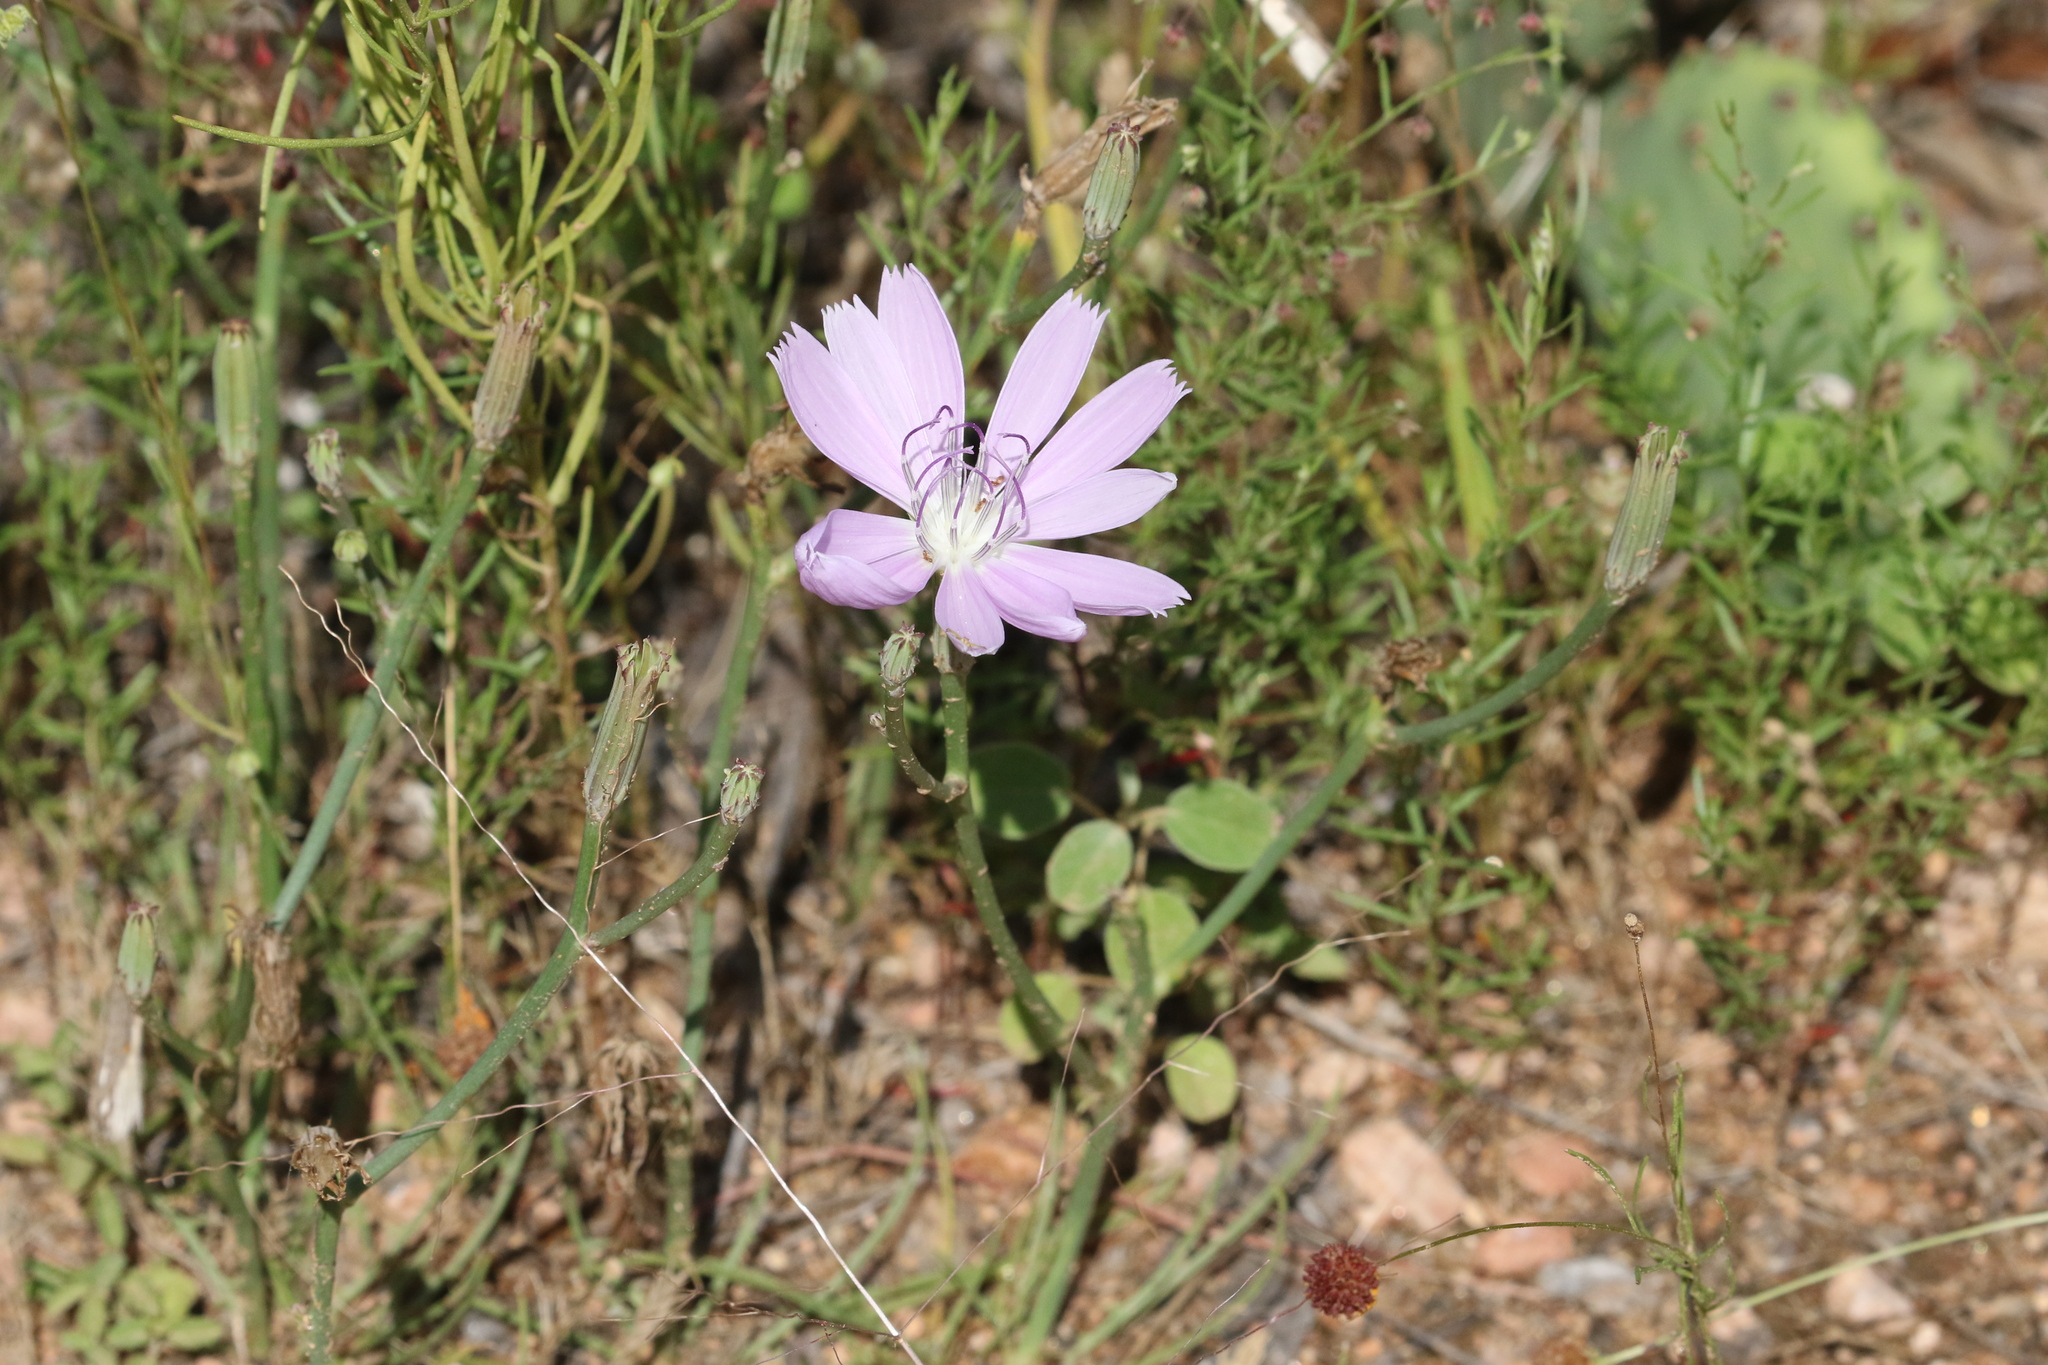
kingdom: Plantae
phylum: Tracheophyta
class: Magnoliopsida
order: Asterales
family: Asteraceae
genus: Lygodesmia
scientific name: Lygodesmia texana
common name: Texas skeleton-plant
